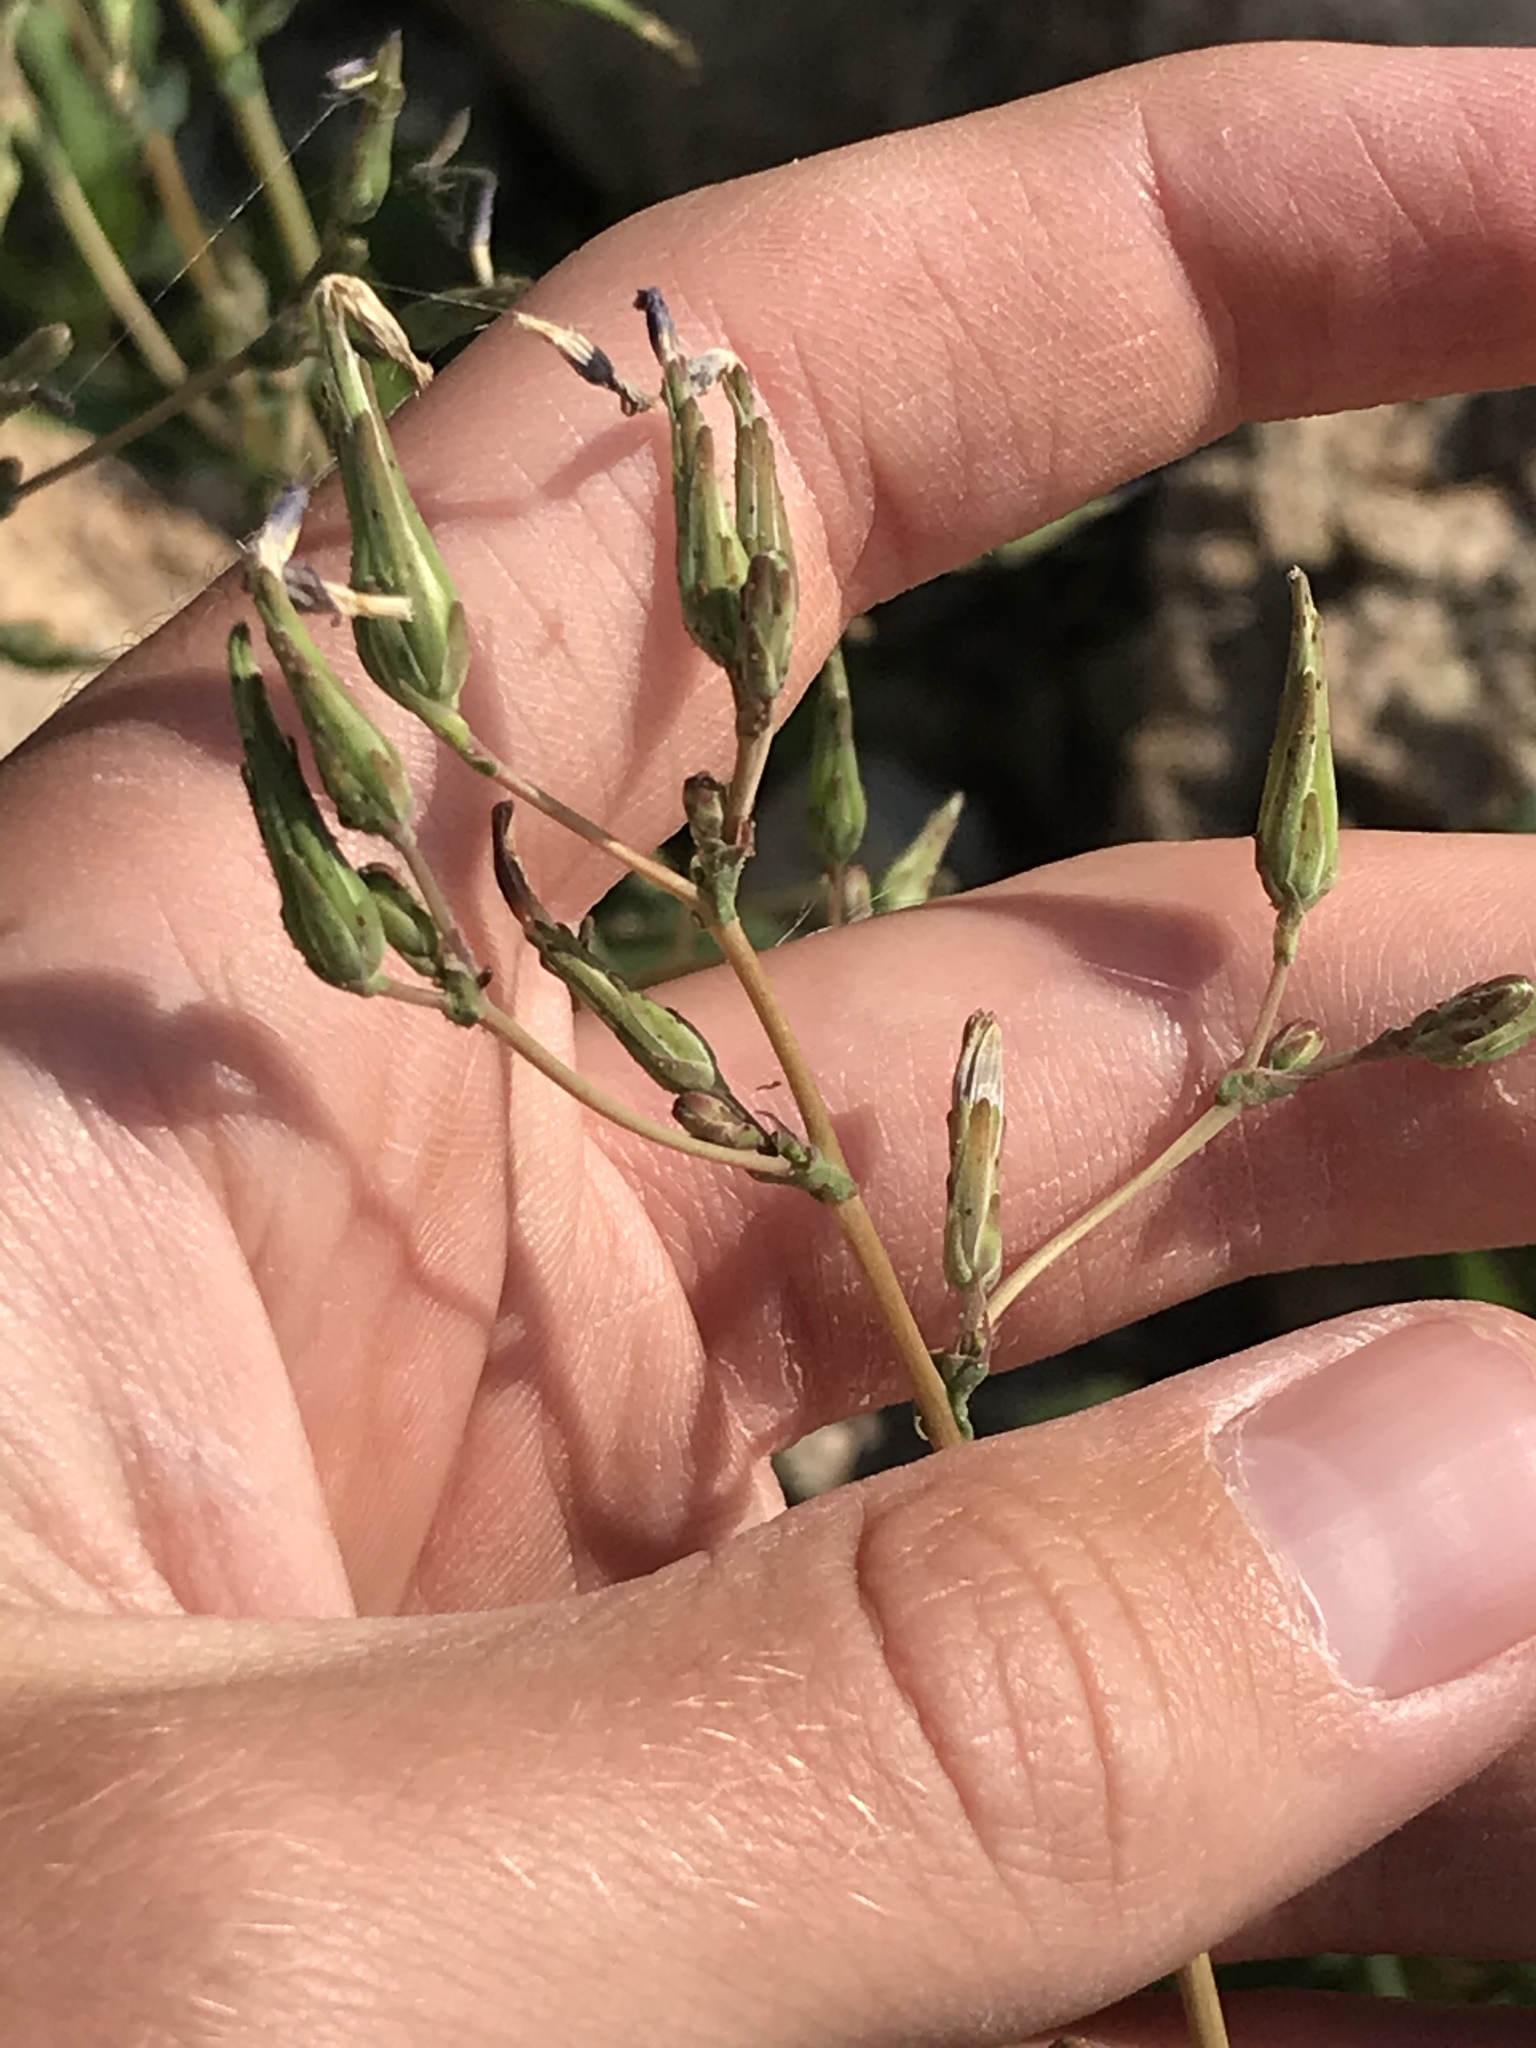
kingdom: Plantae
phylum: Tracheophyta
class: Magnoliopsida
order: Asterales
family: Asteraceae
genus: Lactuca
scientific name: Lactuca serriola
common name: Prickly lettuce
